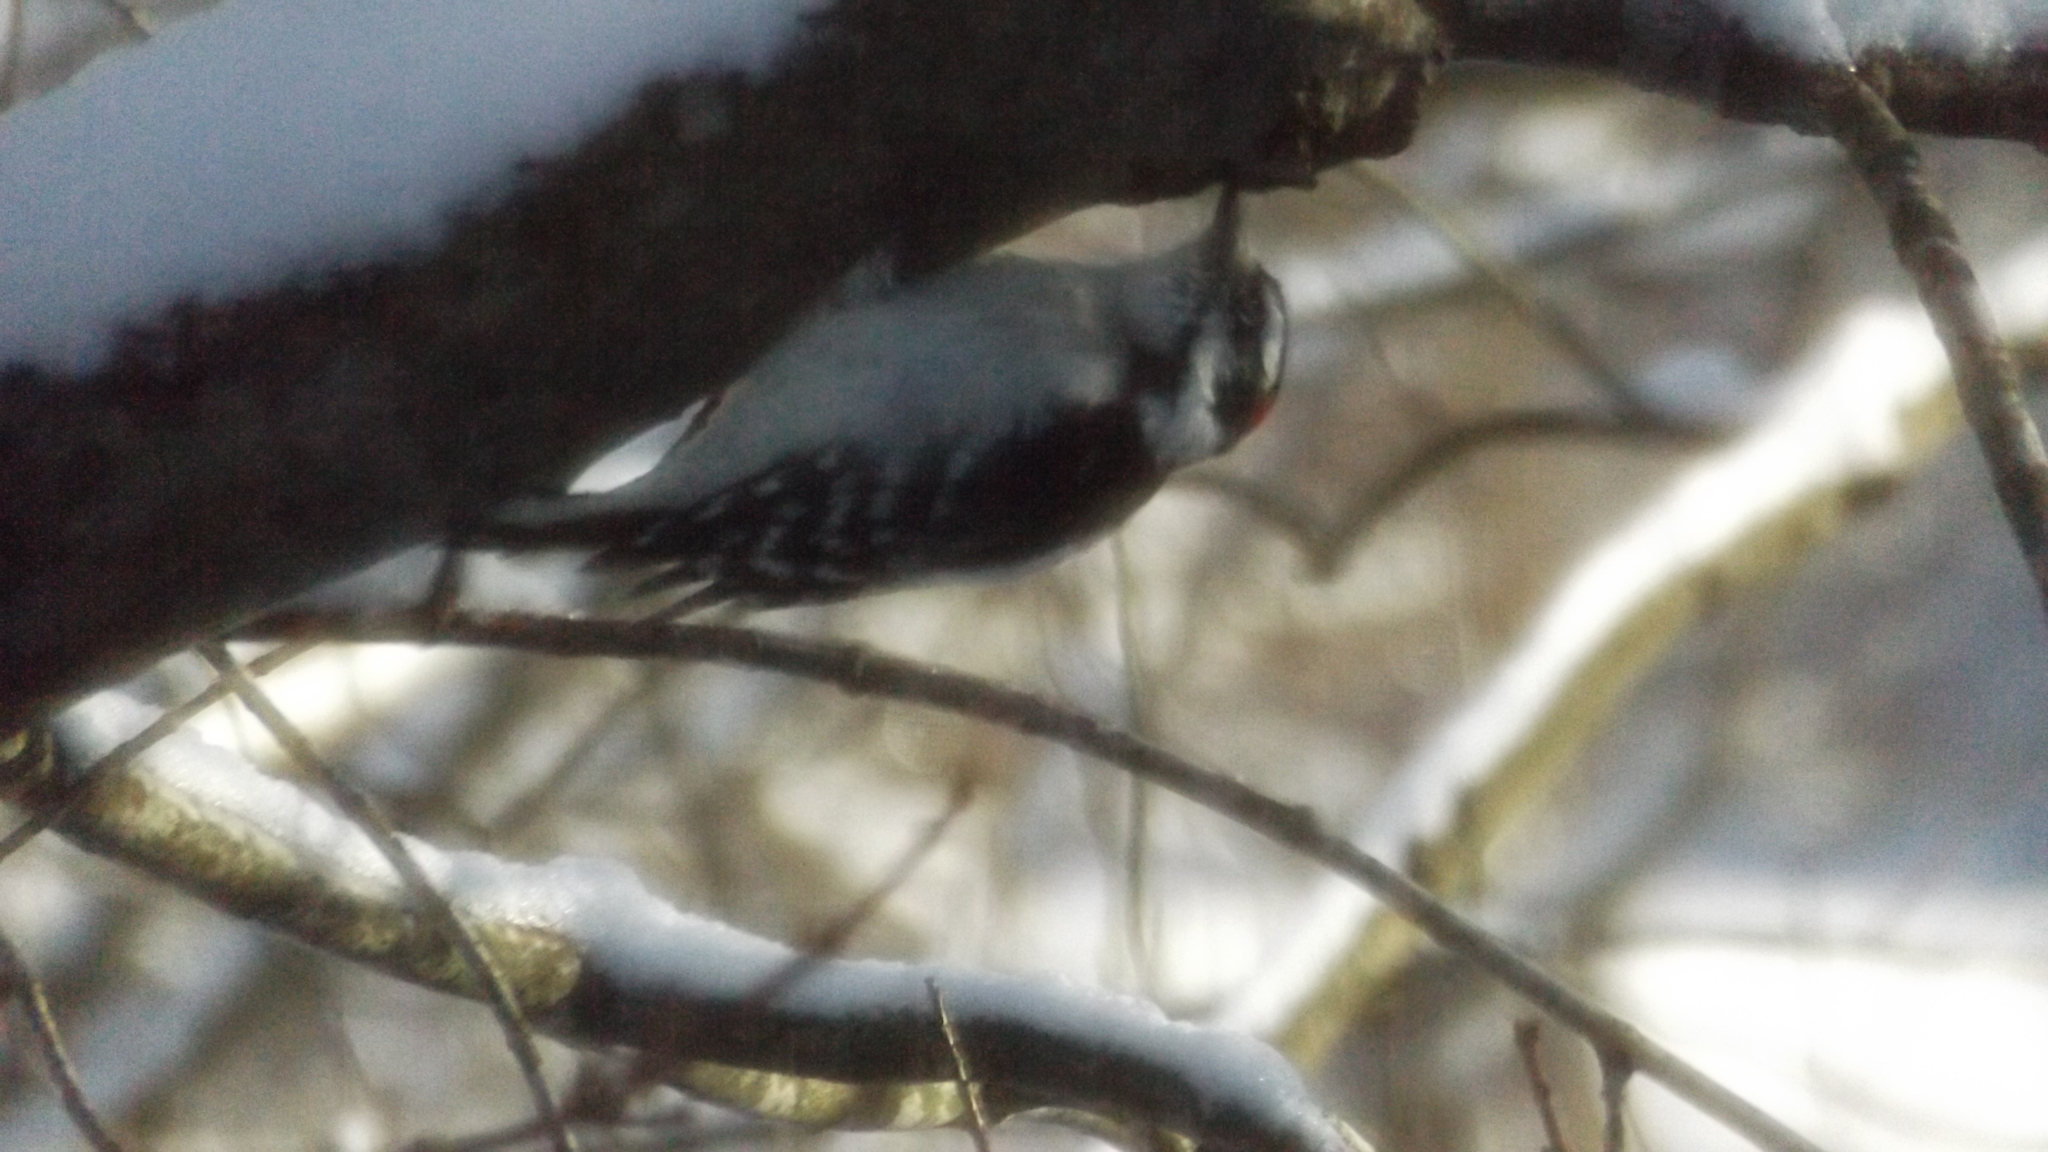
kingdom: Animalia
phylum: Chordata
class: Aves
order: Piciformes
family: Picidae
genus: Dryobates
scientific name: Dryobates pubescens
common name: Downy woodpecker
